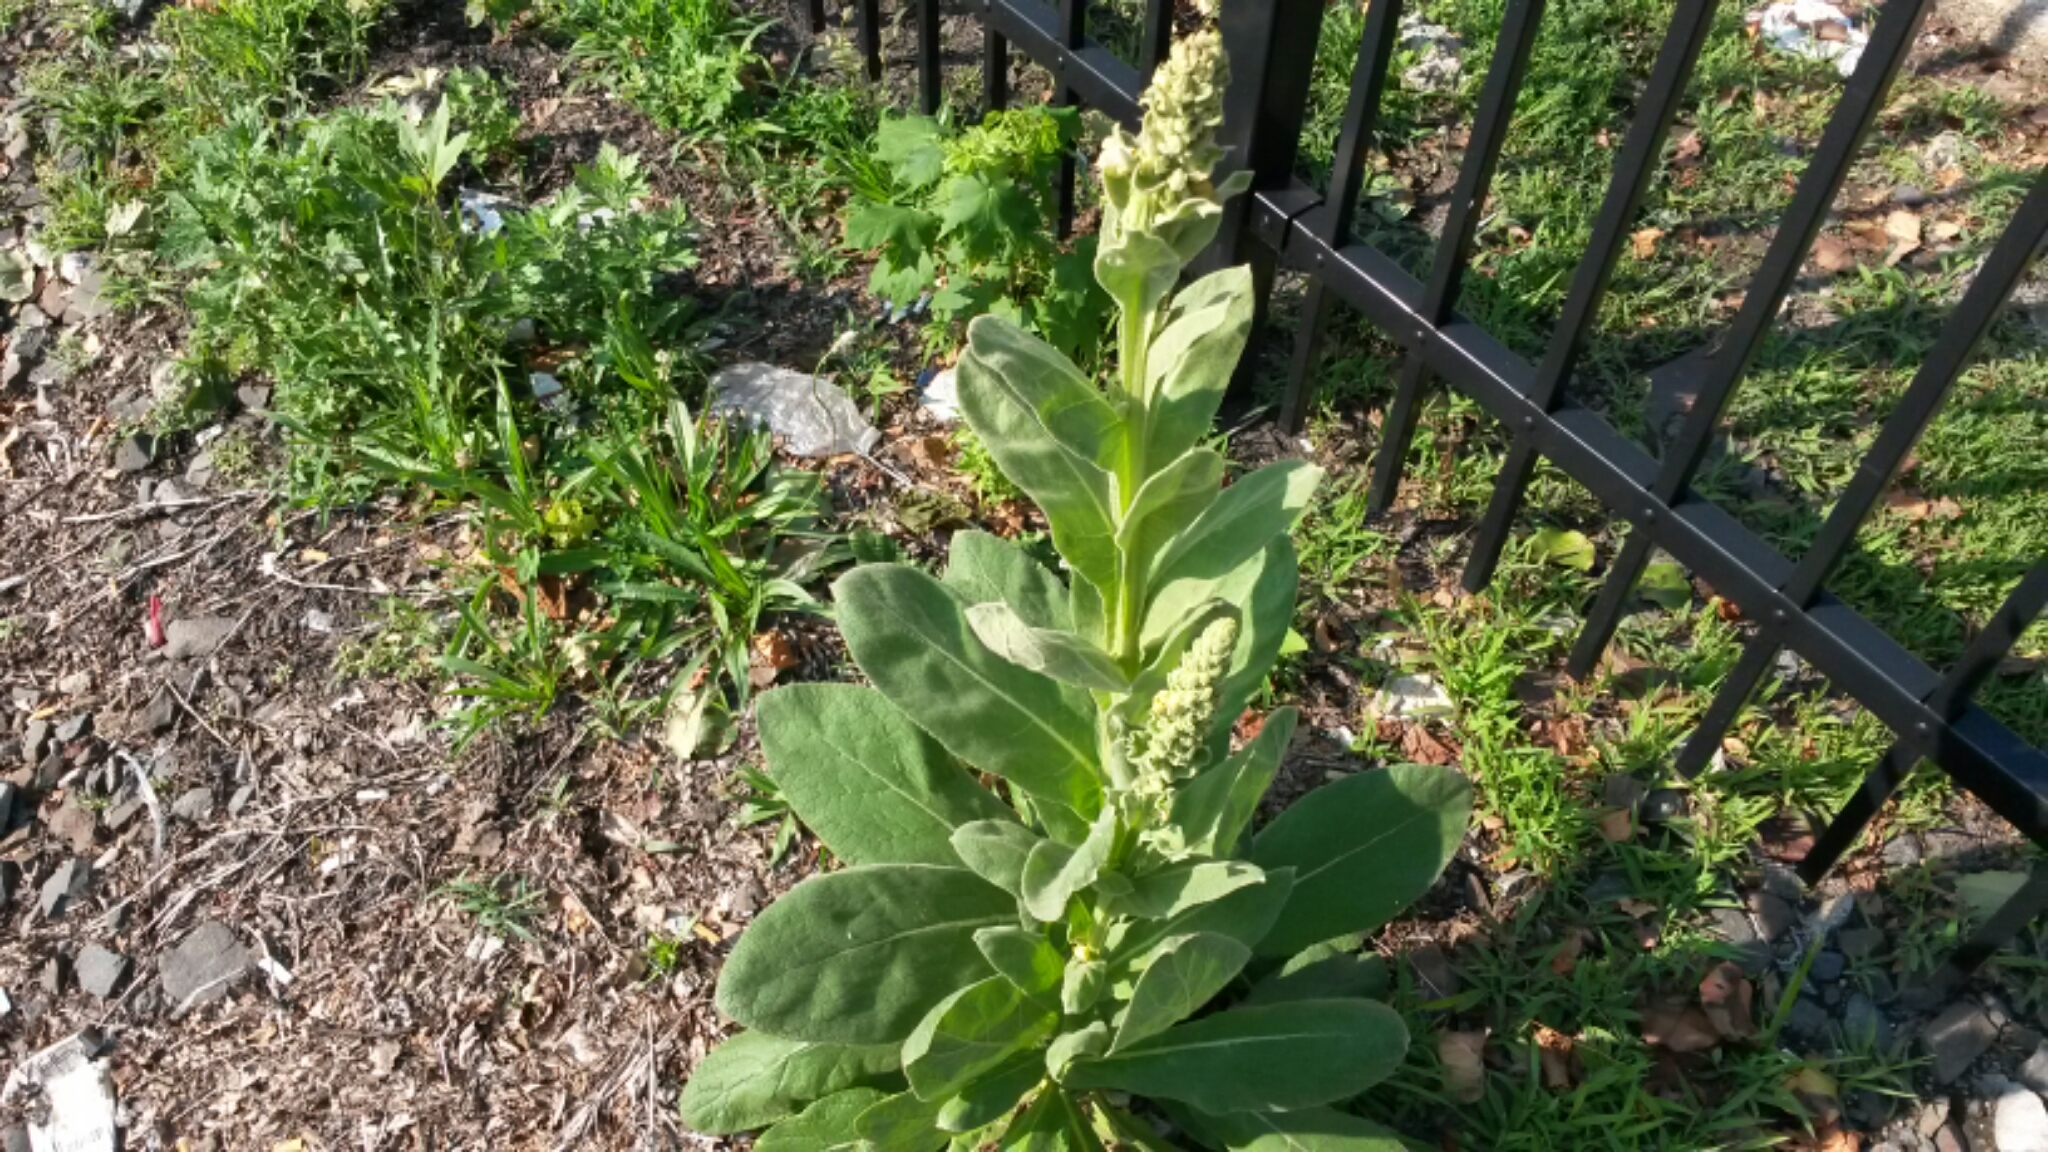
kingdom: Plantae
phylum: Tracheophyta
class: Magnoliopsida
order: Lamiales
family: Scrophulariaceae
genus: Verbascum
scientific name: Verbascum thapsus
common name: Common mullein
